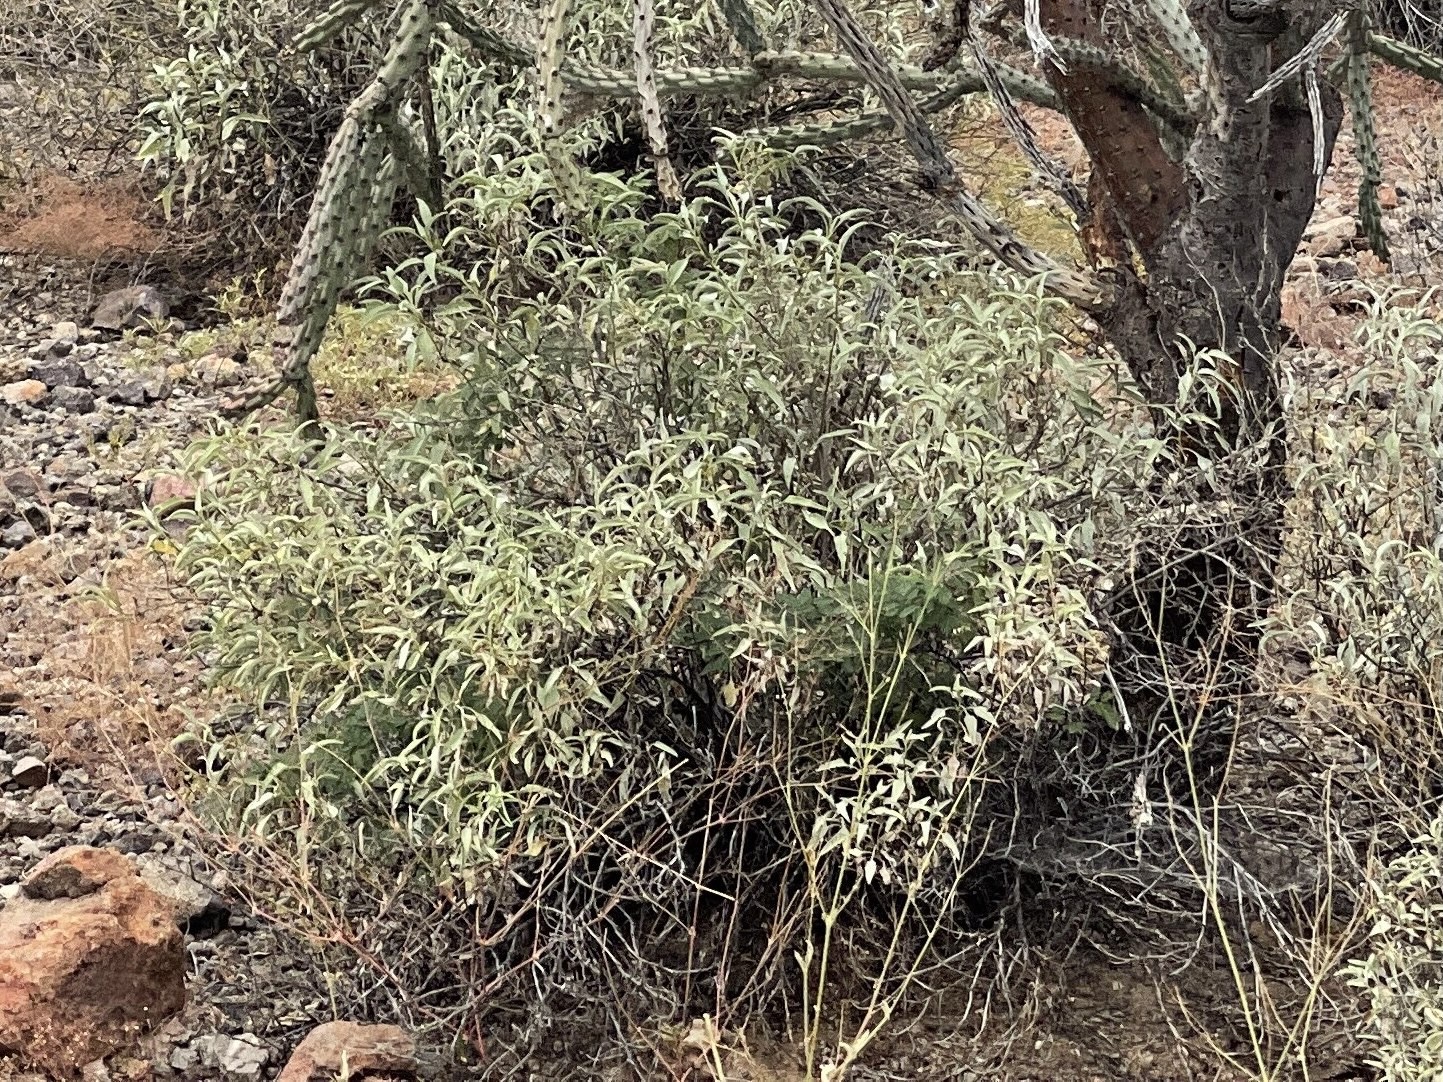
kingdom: Plantae
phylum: Tracheophyta
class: Magnoliopsida
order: Asterales
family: Asteraceae
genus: Ambrosia
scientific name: Ambrosia deltoidea
